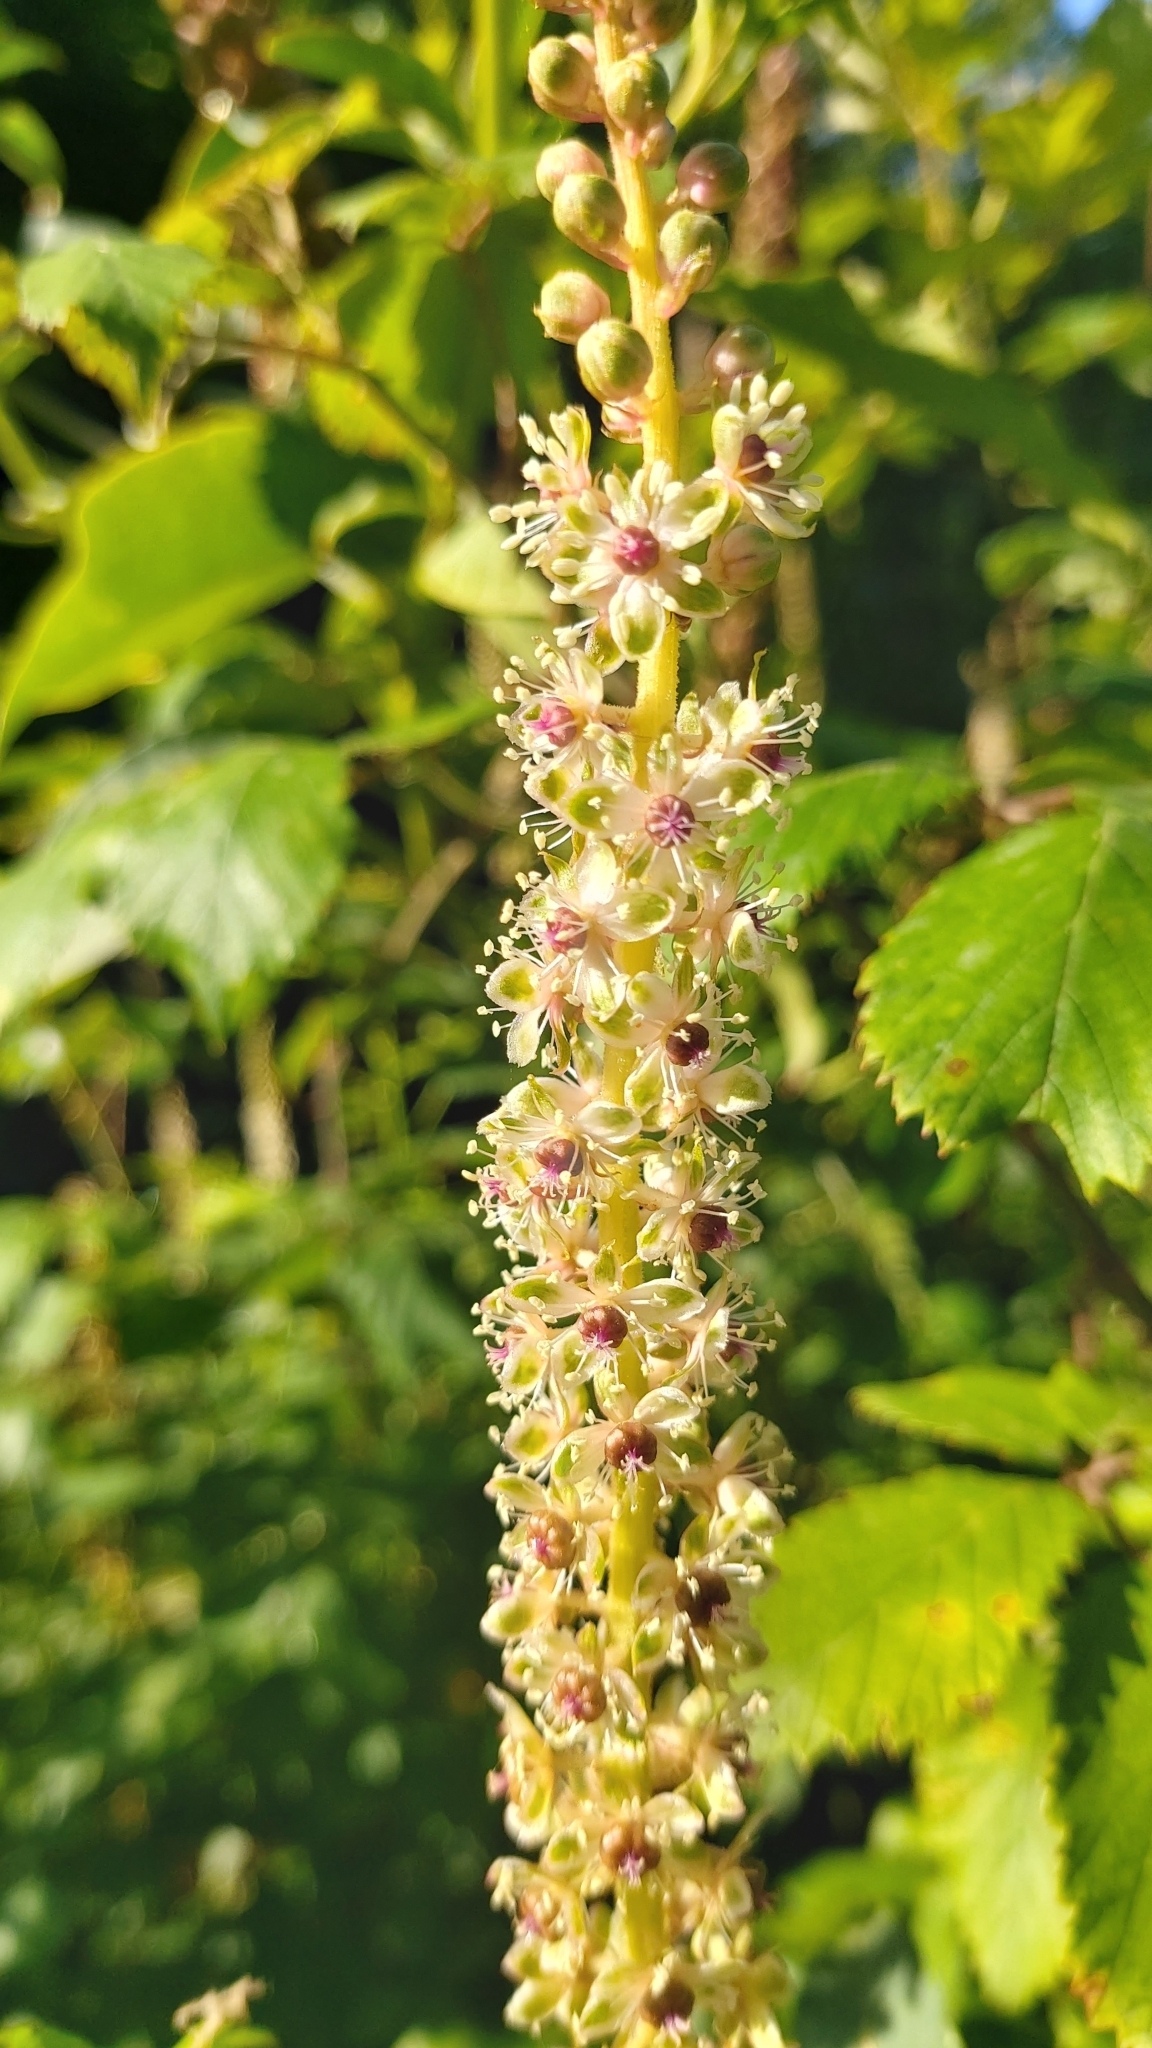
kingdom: Plantae
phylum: Tracheophyta
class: Magnoliopsida
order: Caryophyllales
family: Phytolaccaceae
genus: Phytolacca
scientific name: Phytolacca heterotepala
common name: Mexican pokeweed
